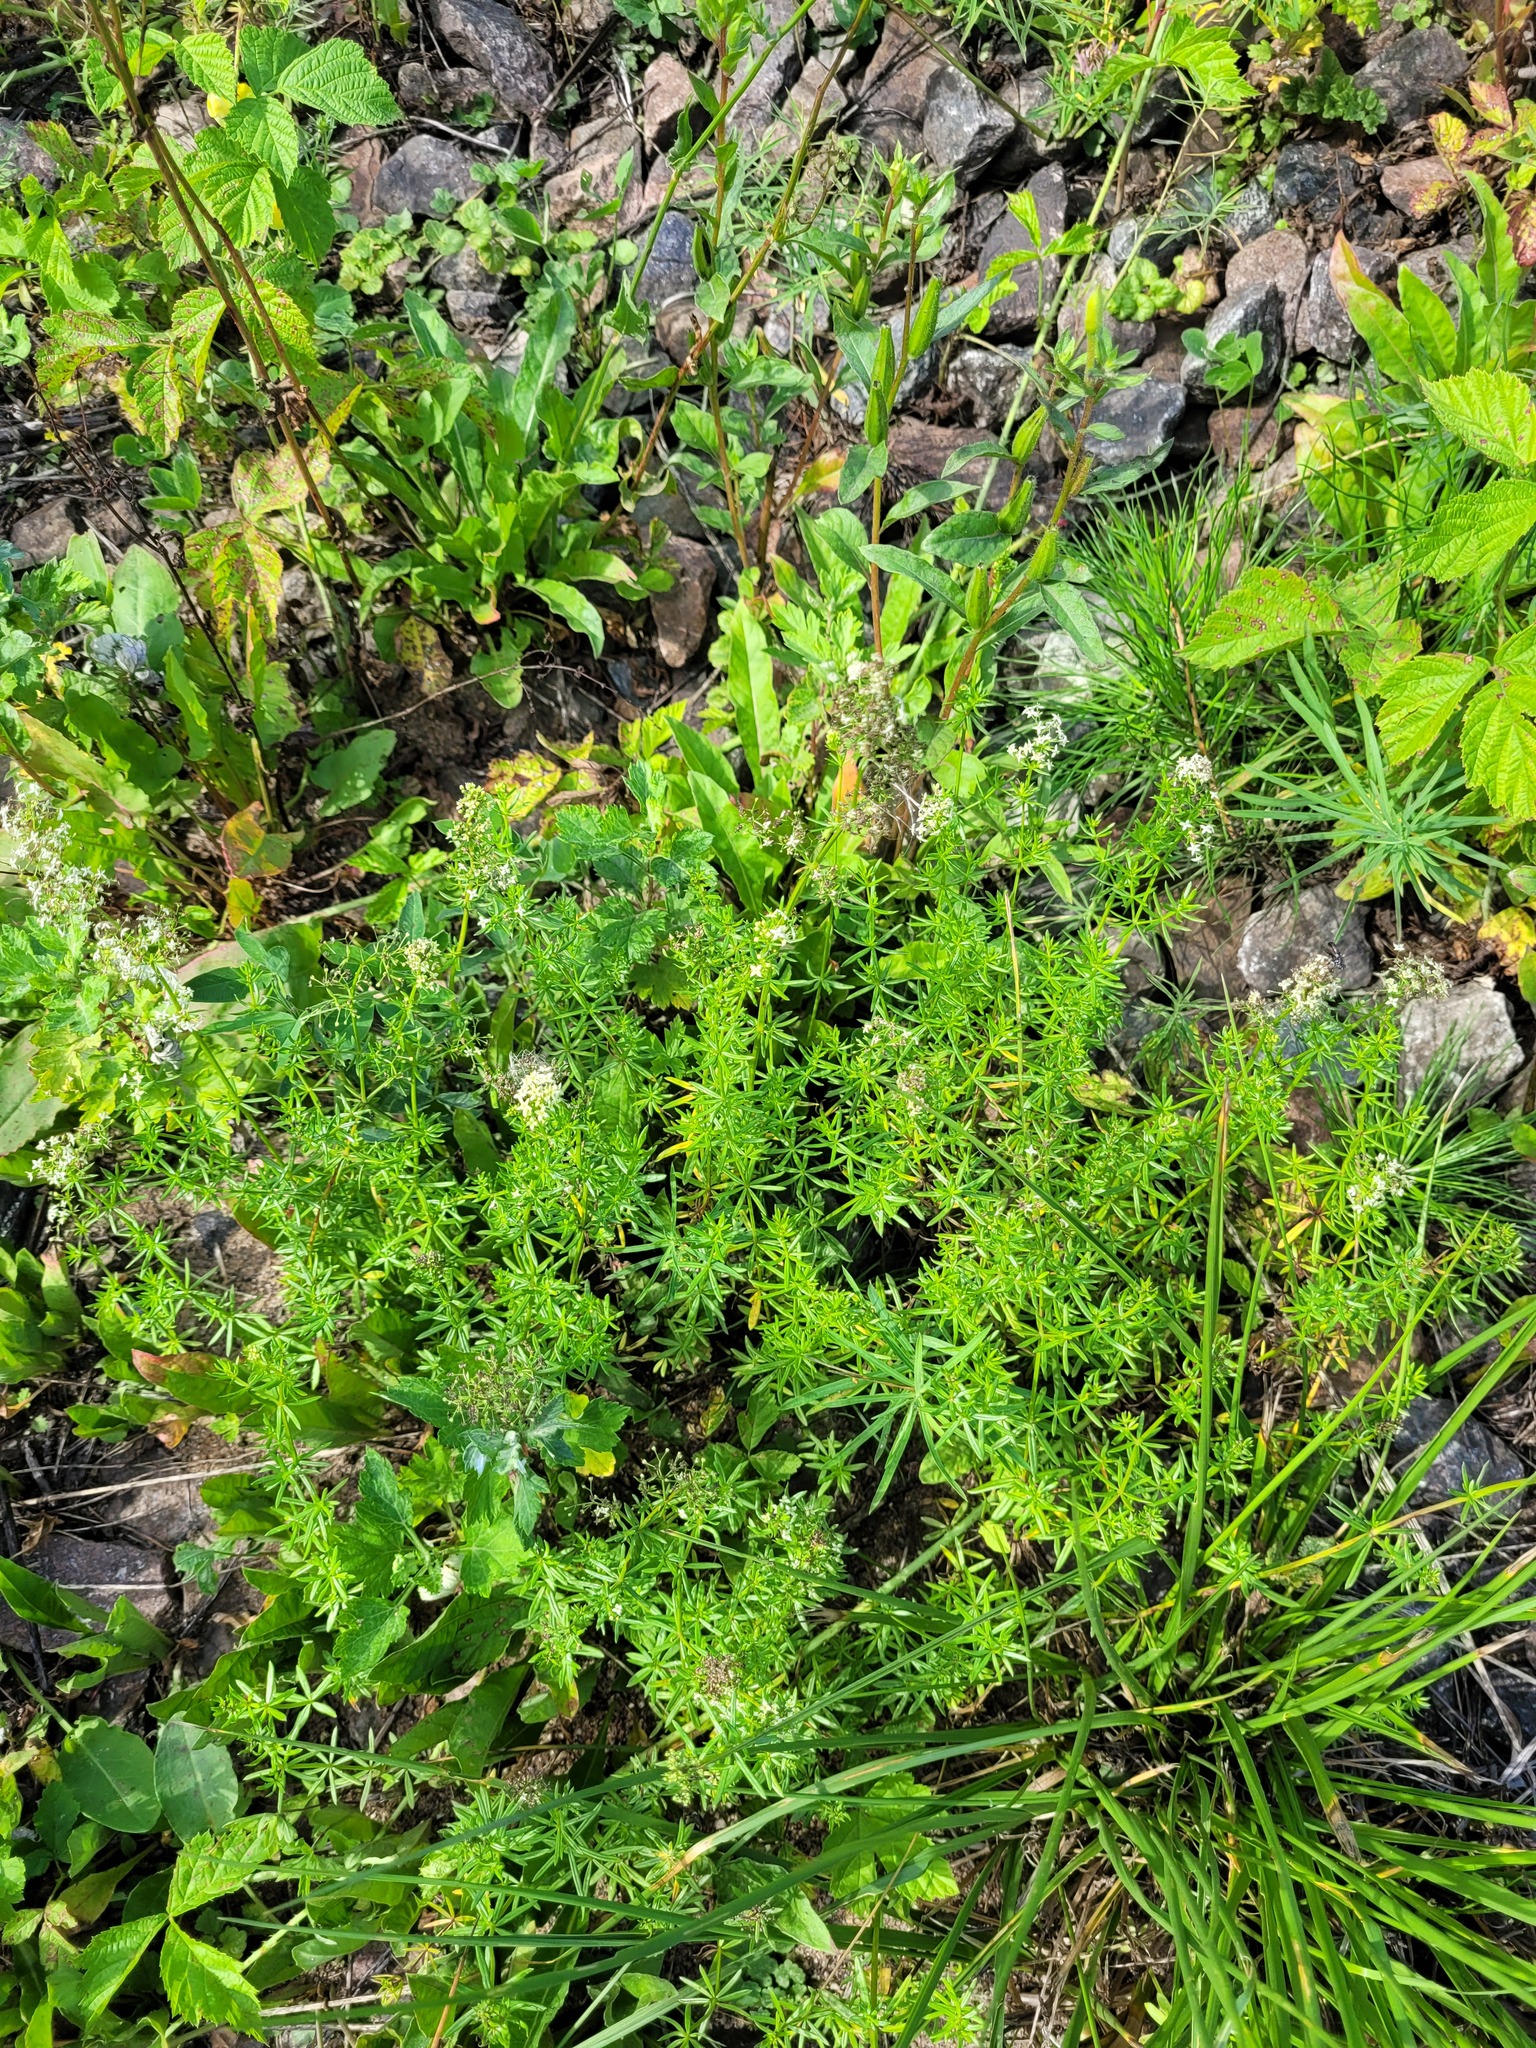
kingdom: Plantae
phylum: Tracheophyta
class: Magnoliopsida
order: Gentianales
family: Rubiaceae
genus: Galium
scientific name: Galium mollugo
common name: Hedge bedstraw
